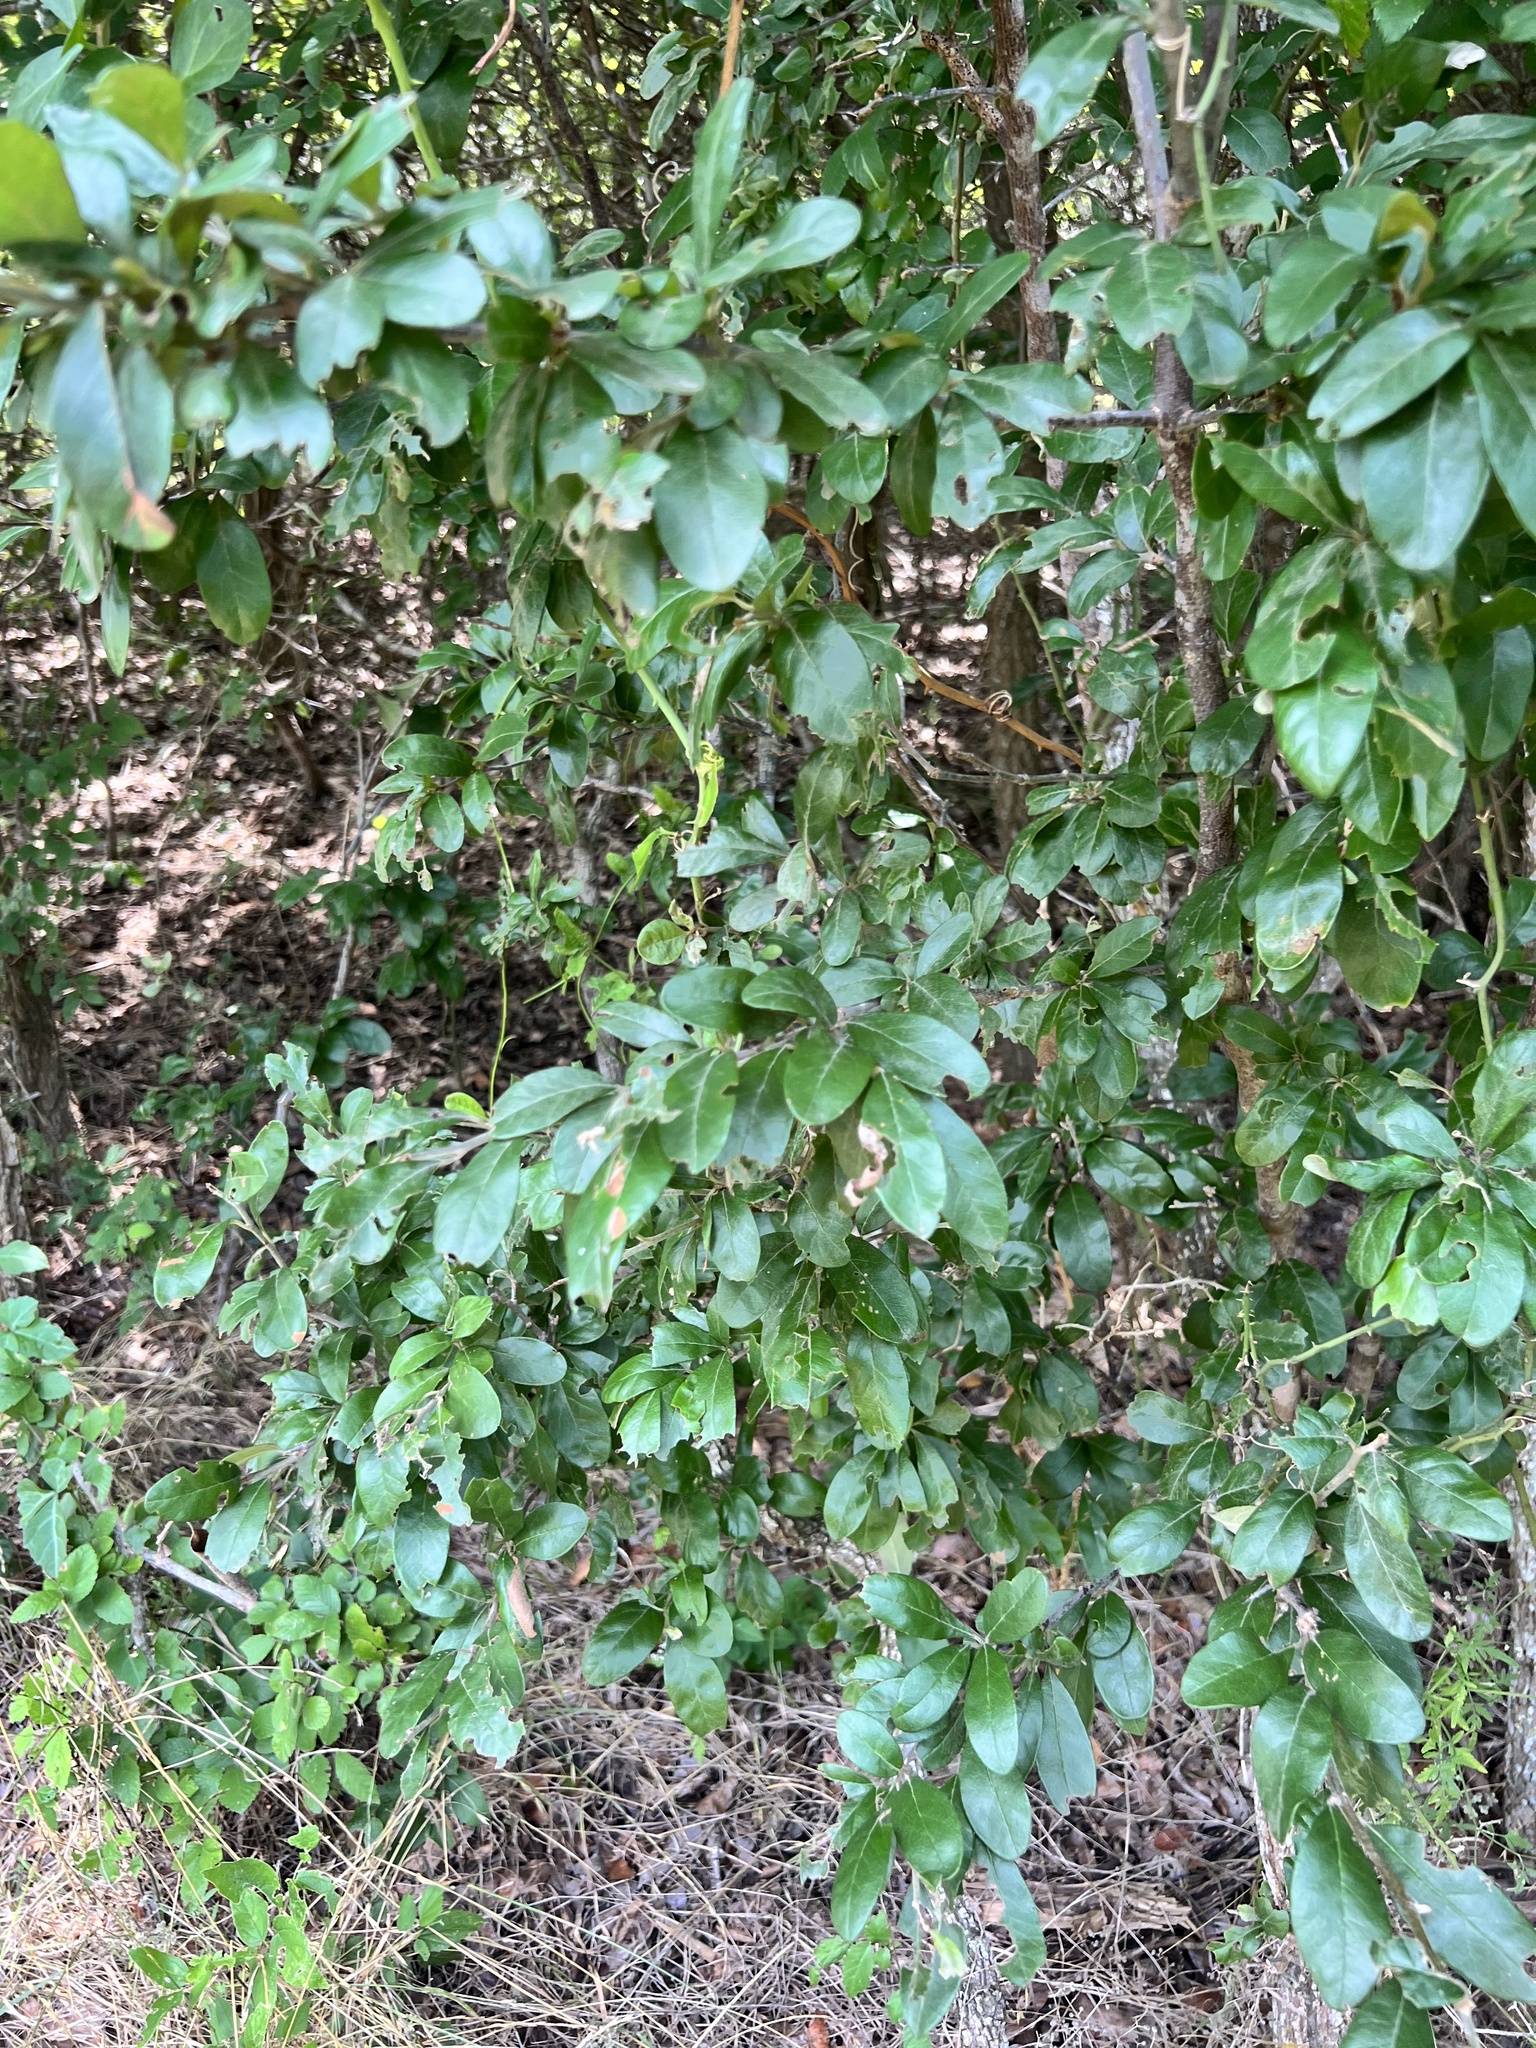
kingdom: Plantae
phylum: Tracheophyta
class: Magnoliopsida
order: Ericales
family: Sapotaceae
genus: Sideroxylon
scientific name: Sideroxylon lanuginosum
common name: Chittamwood
